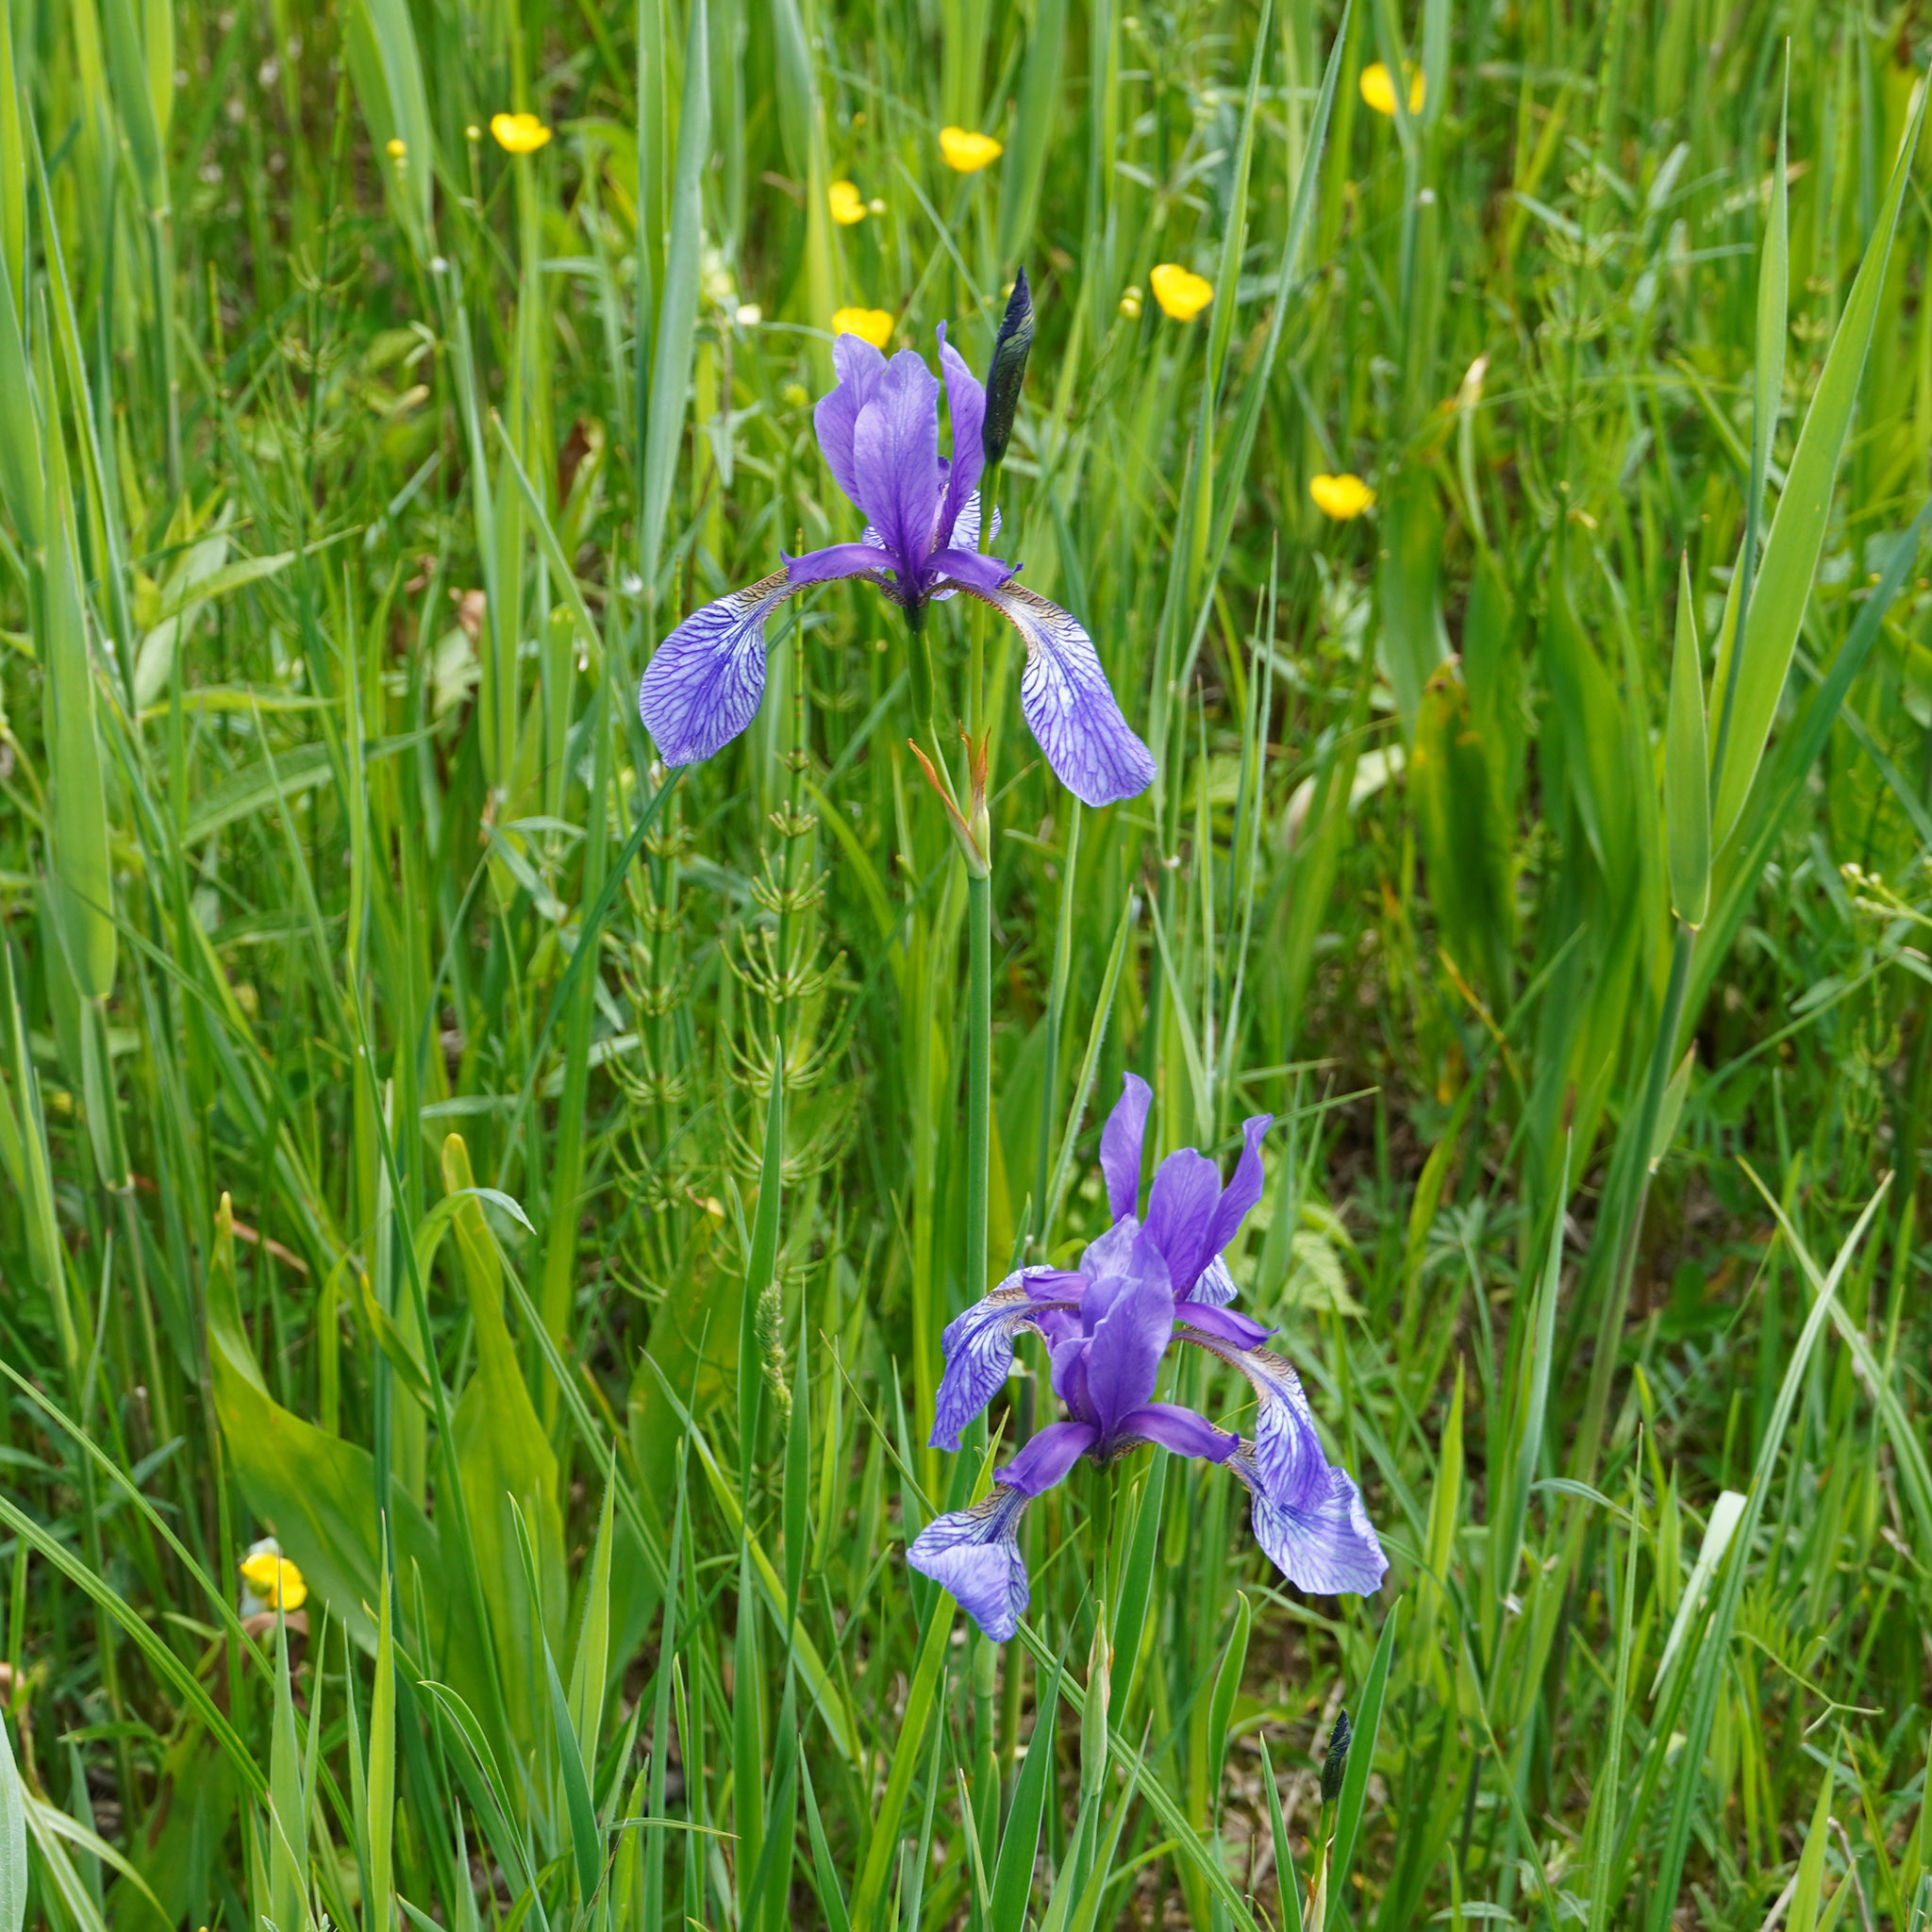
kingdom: Plantae
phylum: Tracheophyta
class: Liliopsida
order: Asparagales
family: Iridaceae
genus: Iris
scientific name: Iris sibirica
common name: Siberian iris
